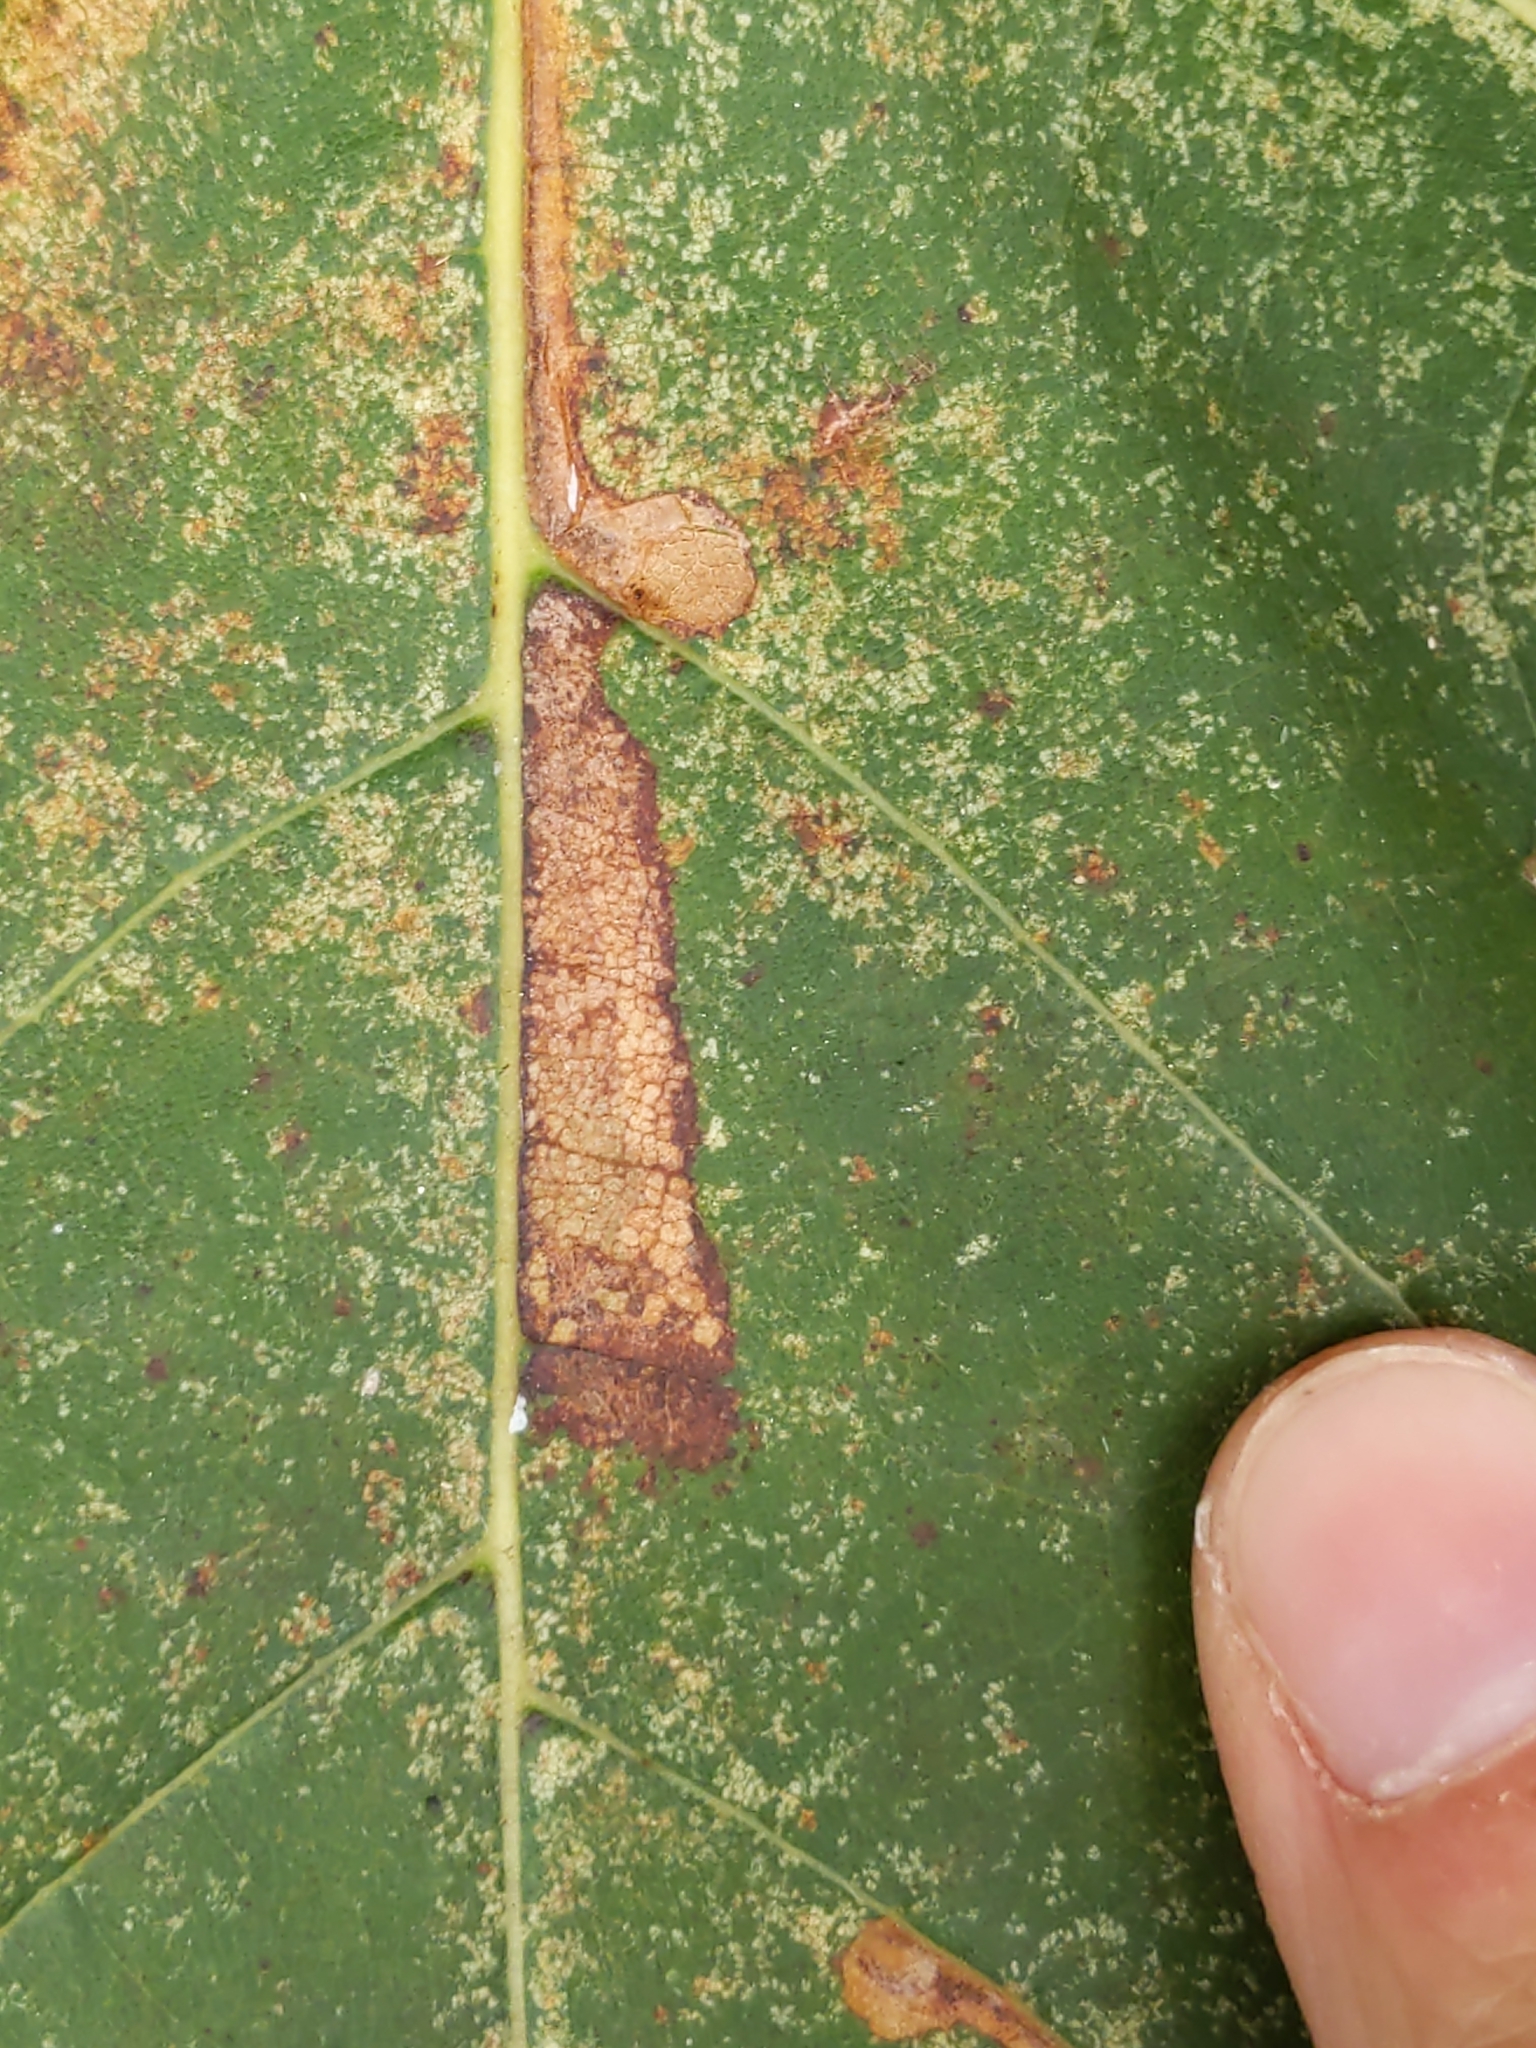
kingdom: Animalia
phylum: Arthropoda
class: Insecta
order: Lepidoptera
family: Tortricidae
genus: Ancylis
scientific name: Ancylis platanana
